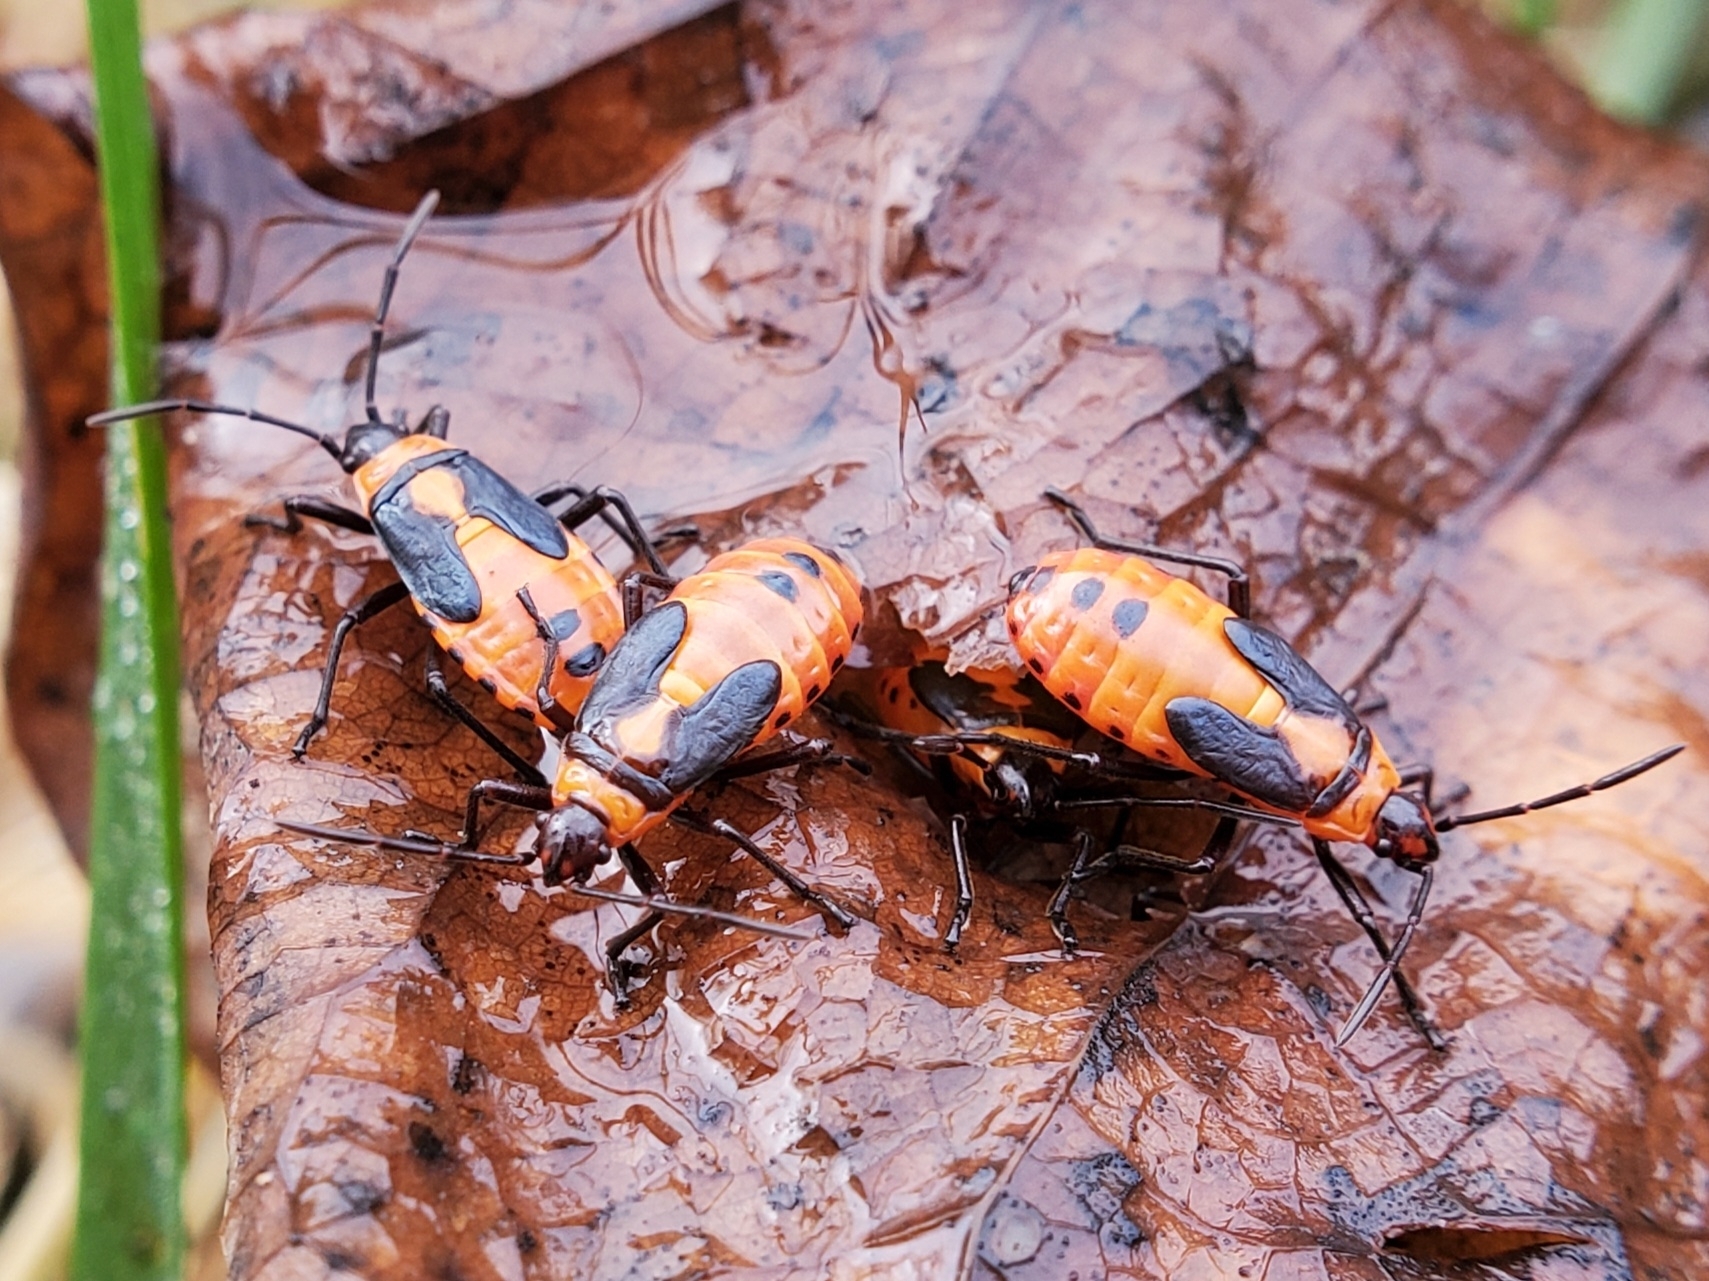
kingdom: Animalia
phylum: Arthropoda
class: Insecta
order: Hemiptera
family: Lygaeidae
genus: Oncopeltus
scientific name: Oncopeltus fasciatus
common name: Large milkweed bug
